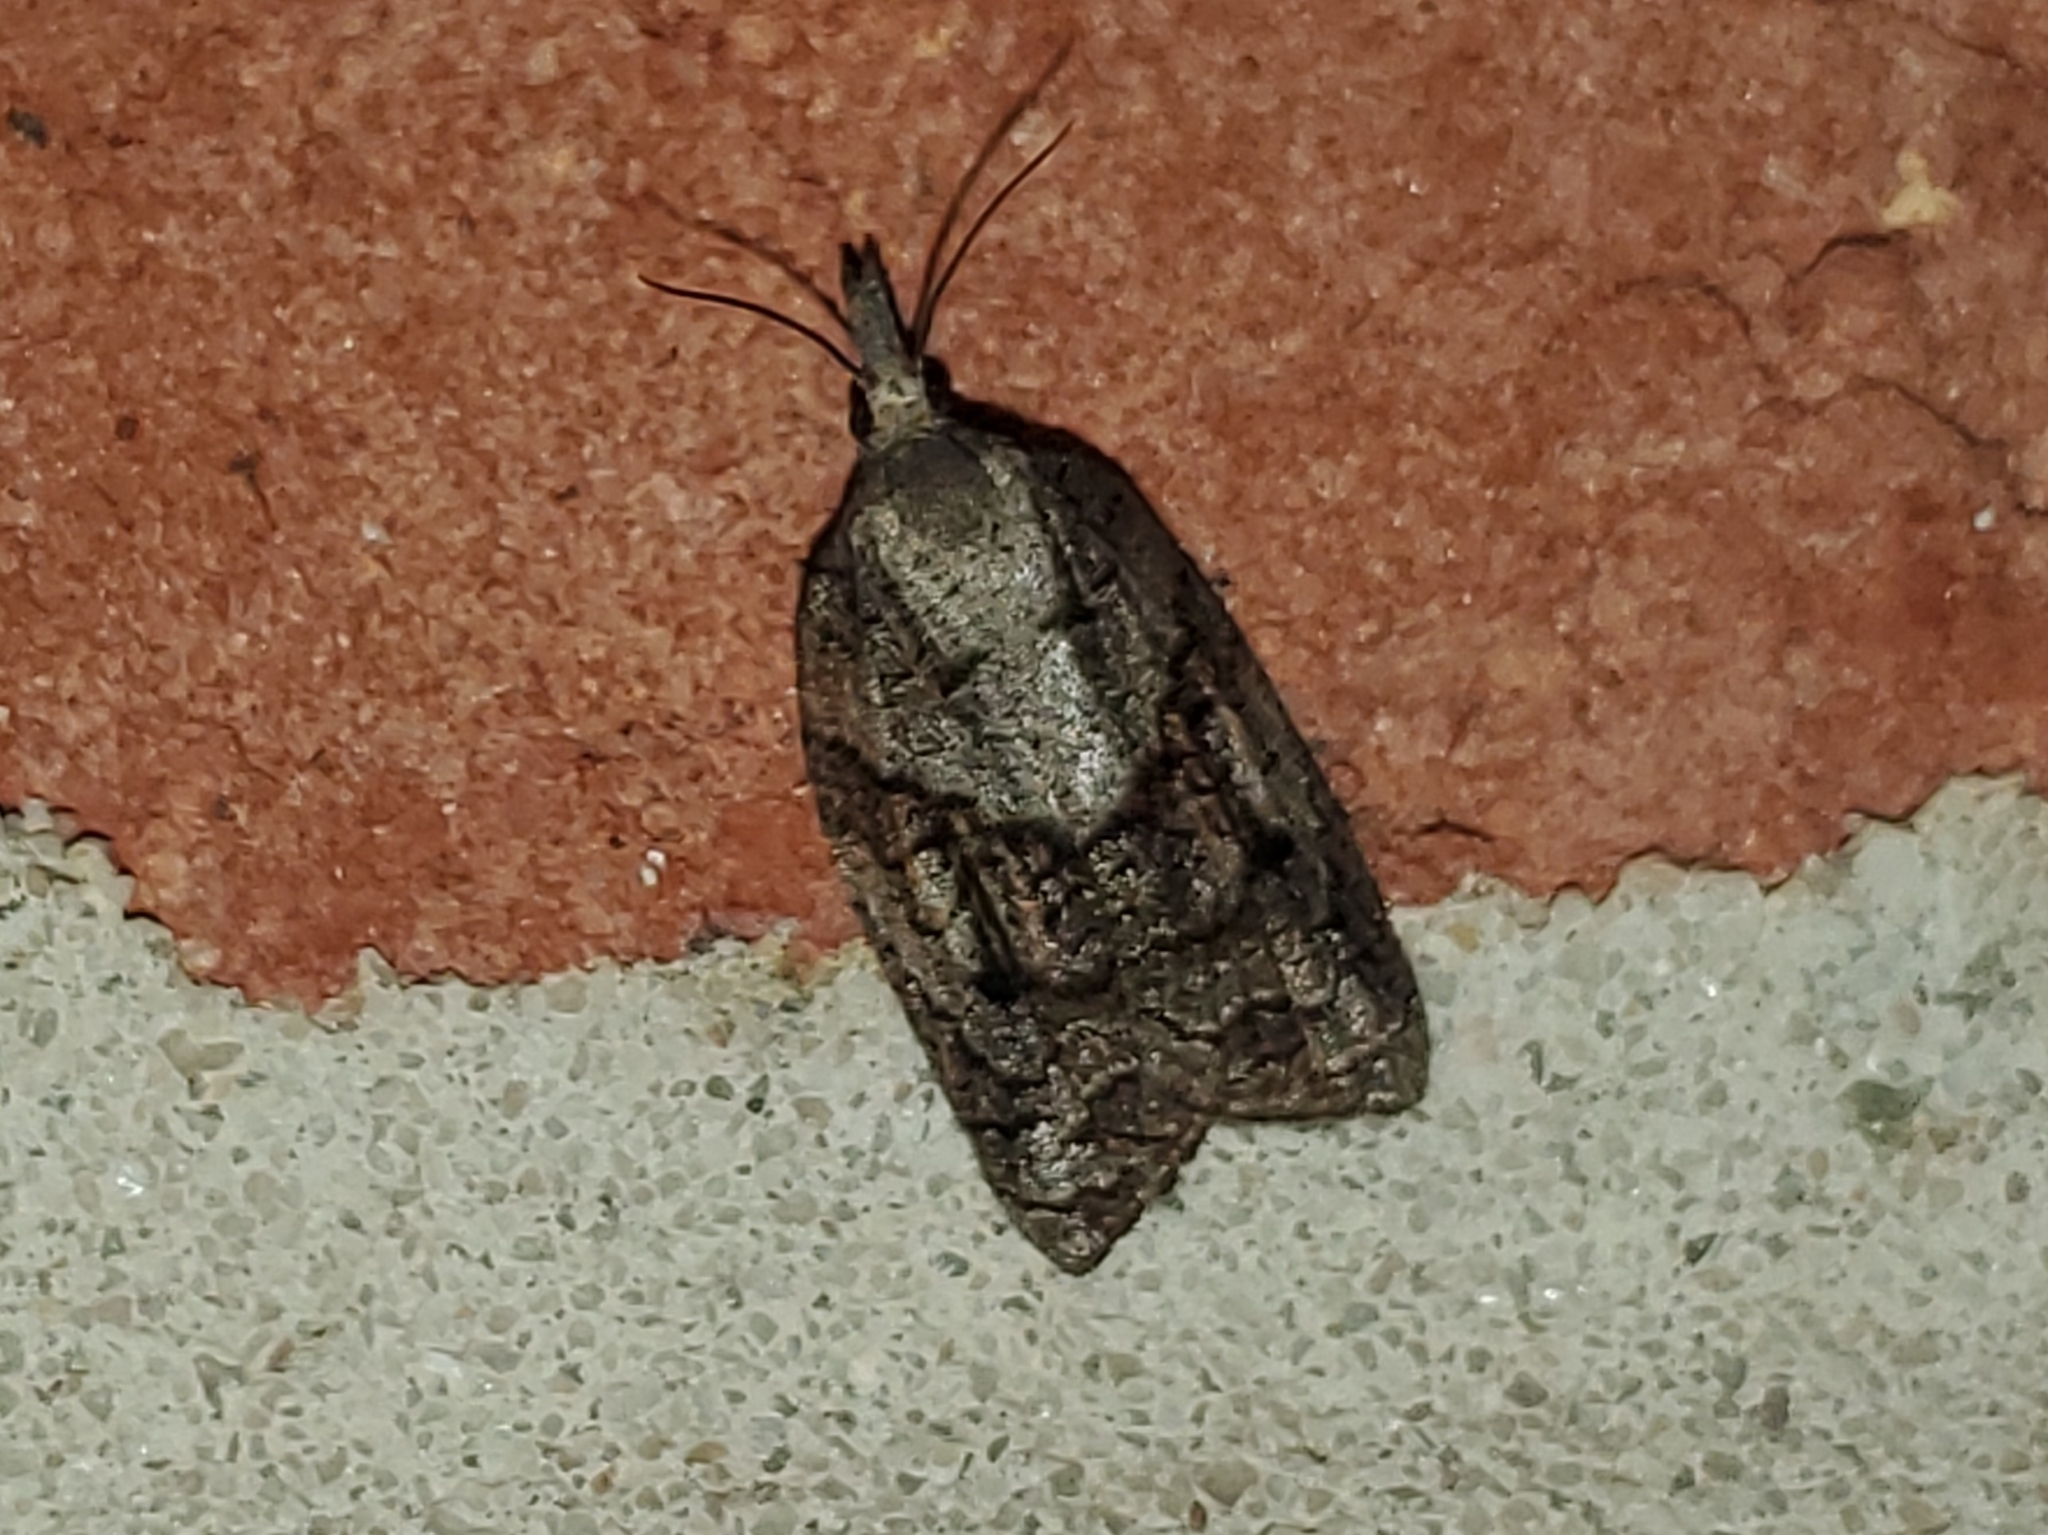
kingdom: Animalia
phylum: Arthropoda
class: Insecta
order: Lepidoptera
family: Tortricidae
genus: Platynota
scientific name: Platynota idaeusalis
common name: Tufted apple bud moth
